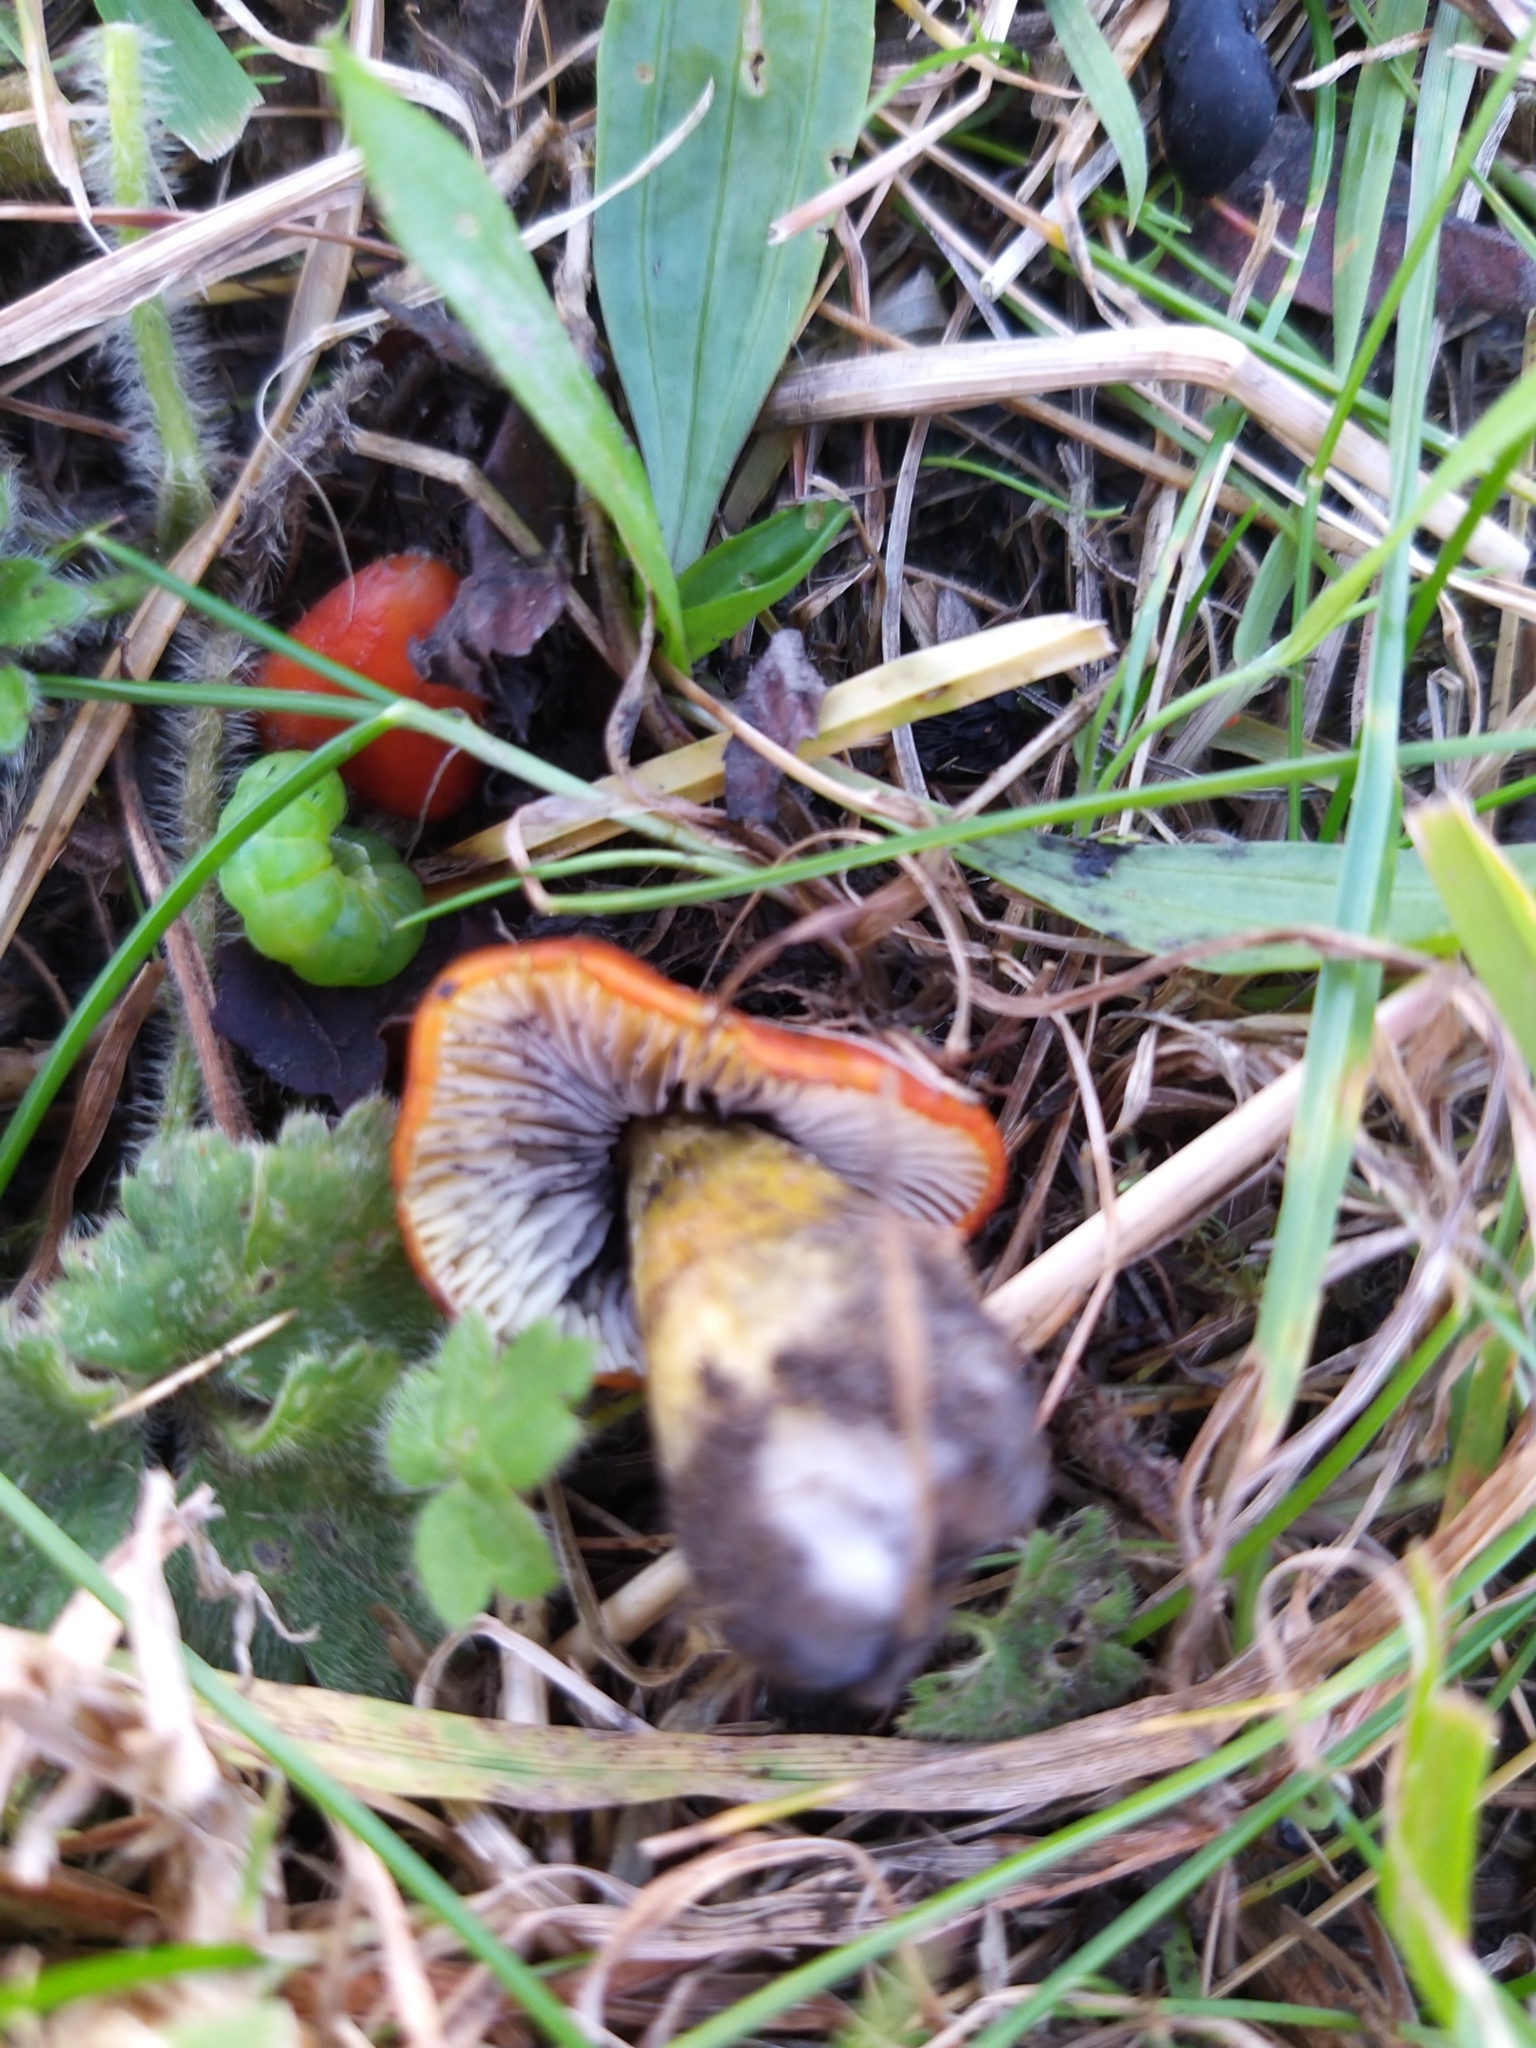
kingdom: Fungi
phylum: Basidiomycota
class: Agaricomycetes
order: Agaricales
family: Hygrophoraceae
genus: Hygrocybe
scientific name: Hygrocybe conica
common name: Blackening wax-cap
